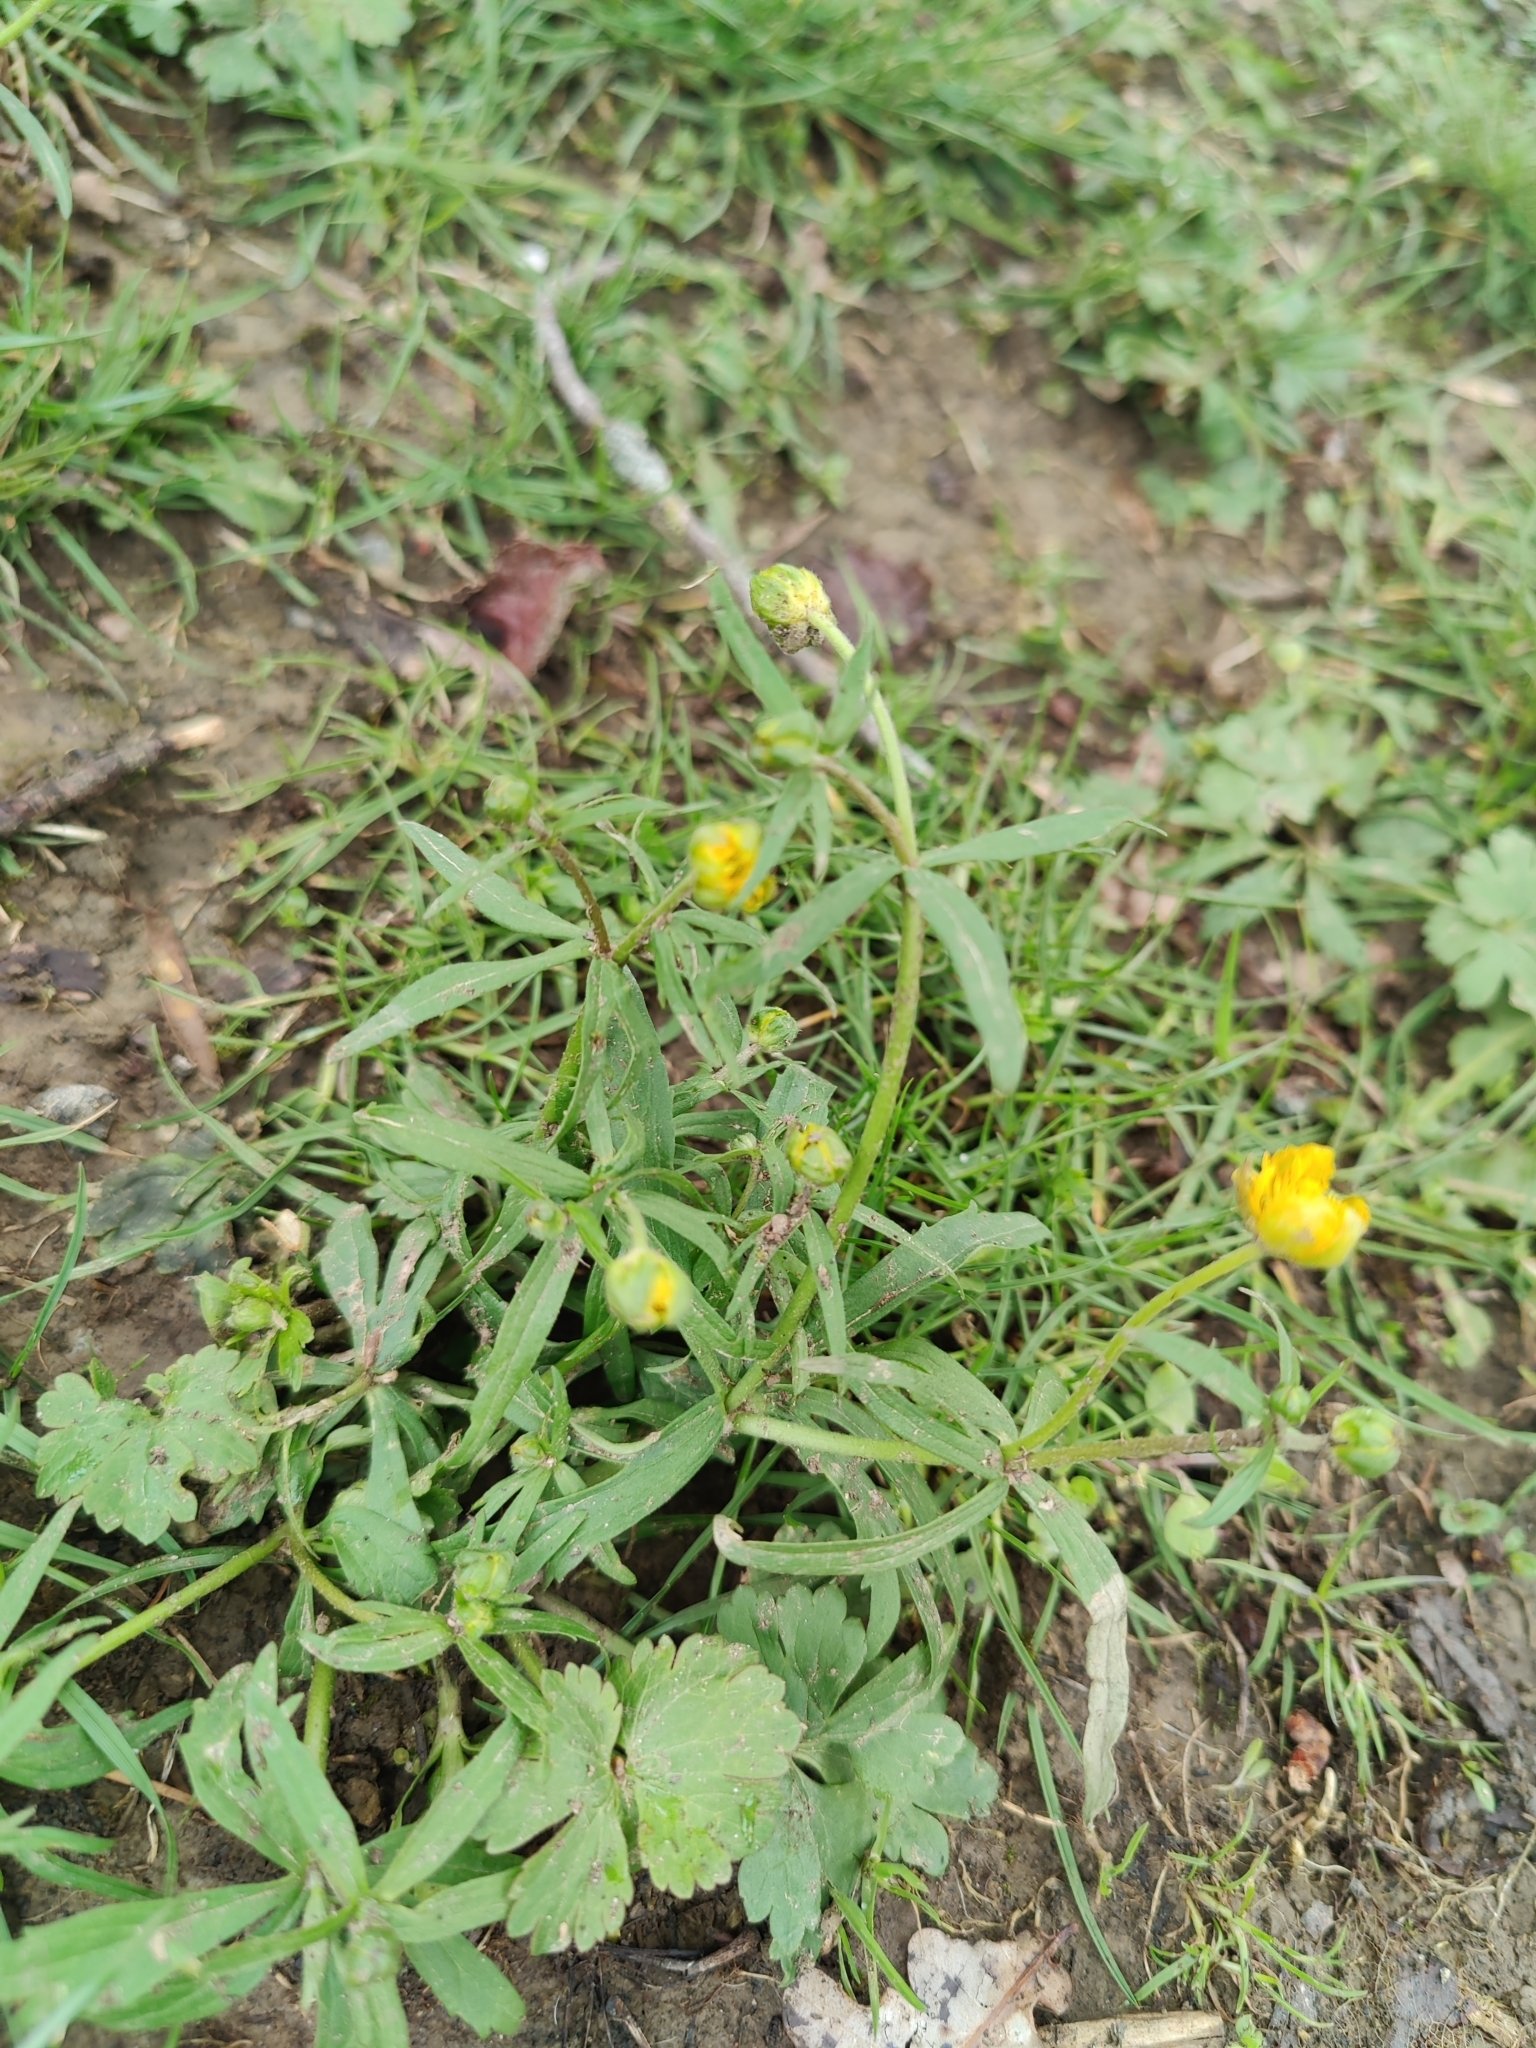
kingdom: Plantae
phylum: Tracheophyta
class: Magnoliopsida
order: Ranunculales
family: Ranunculaceae
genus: Ranunculus
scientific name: Ranunculus auricomus
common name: Goldilocks buttercup
